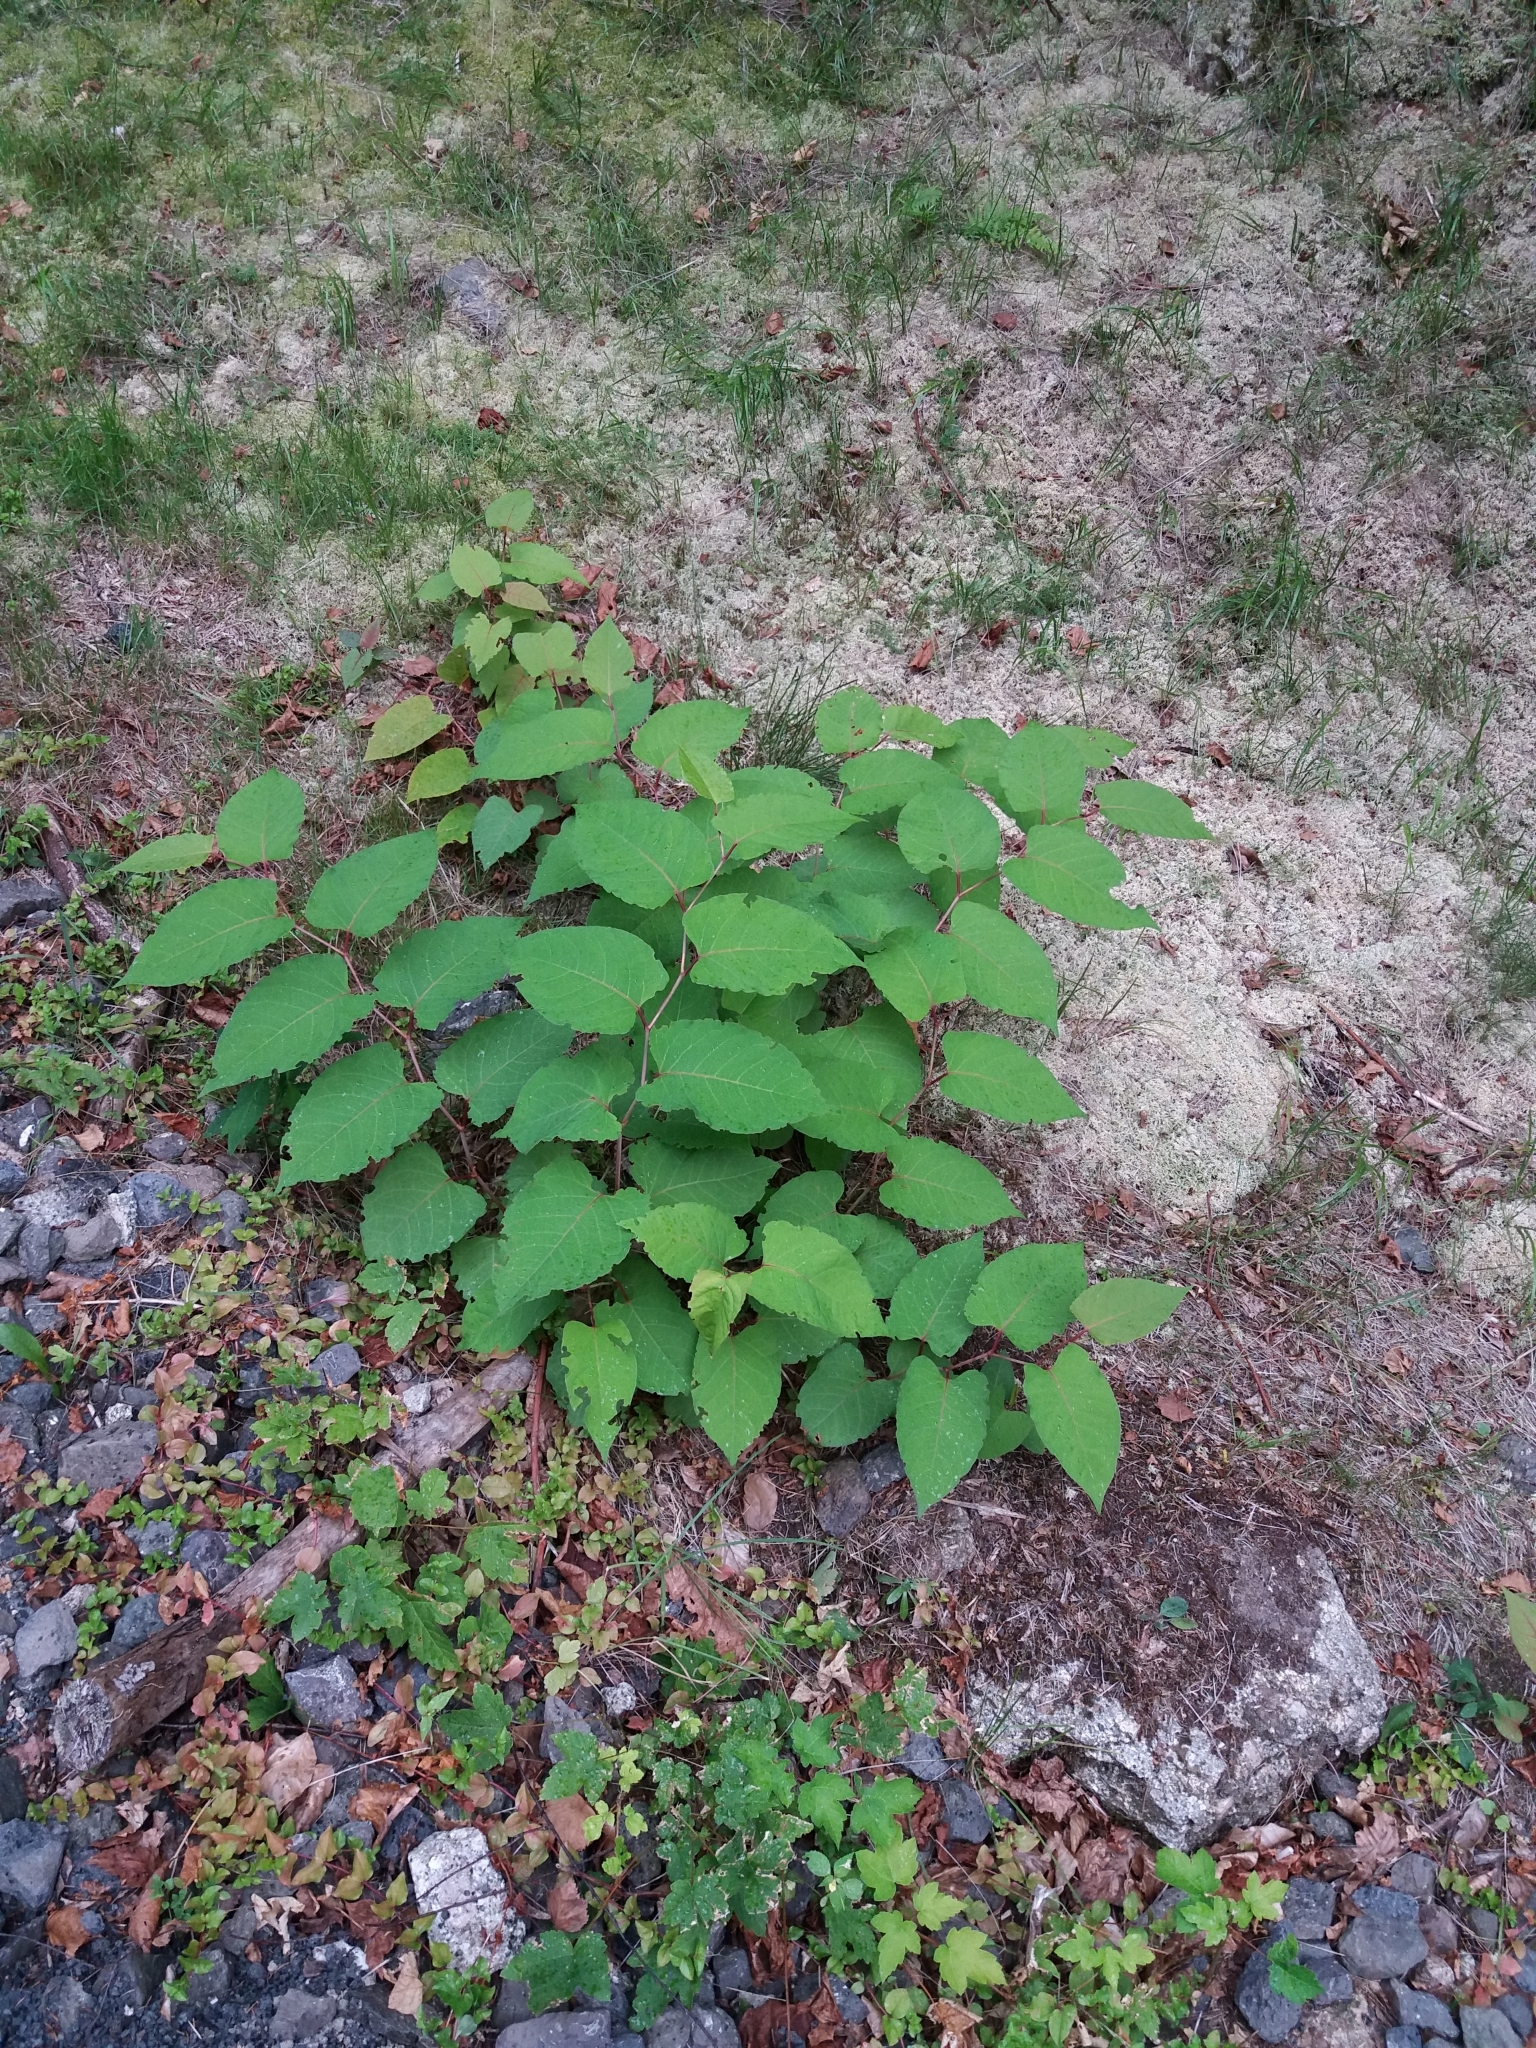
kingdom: Plantae
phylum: Tracheophyta
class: Magnoliopsida
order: Caryophyllales
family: Polygonaceae
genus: Reynoutria
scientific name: Reynoutria bohemica
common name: Bohemian knotweed
